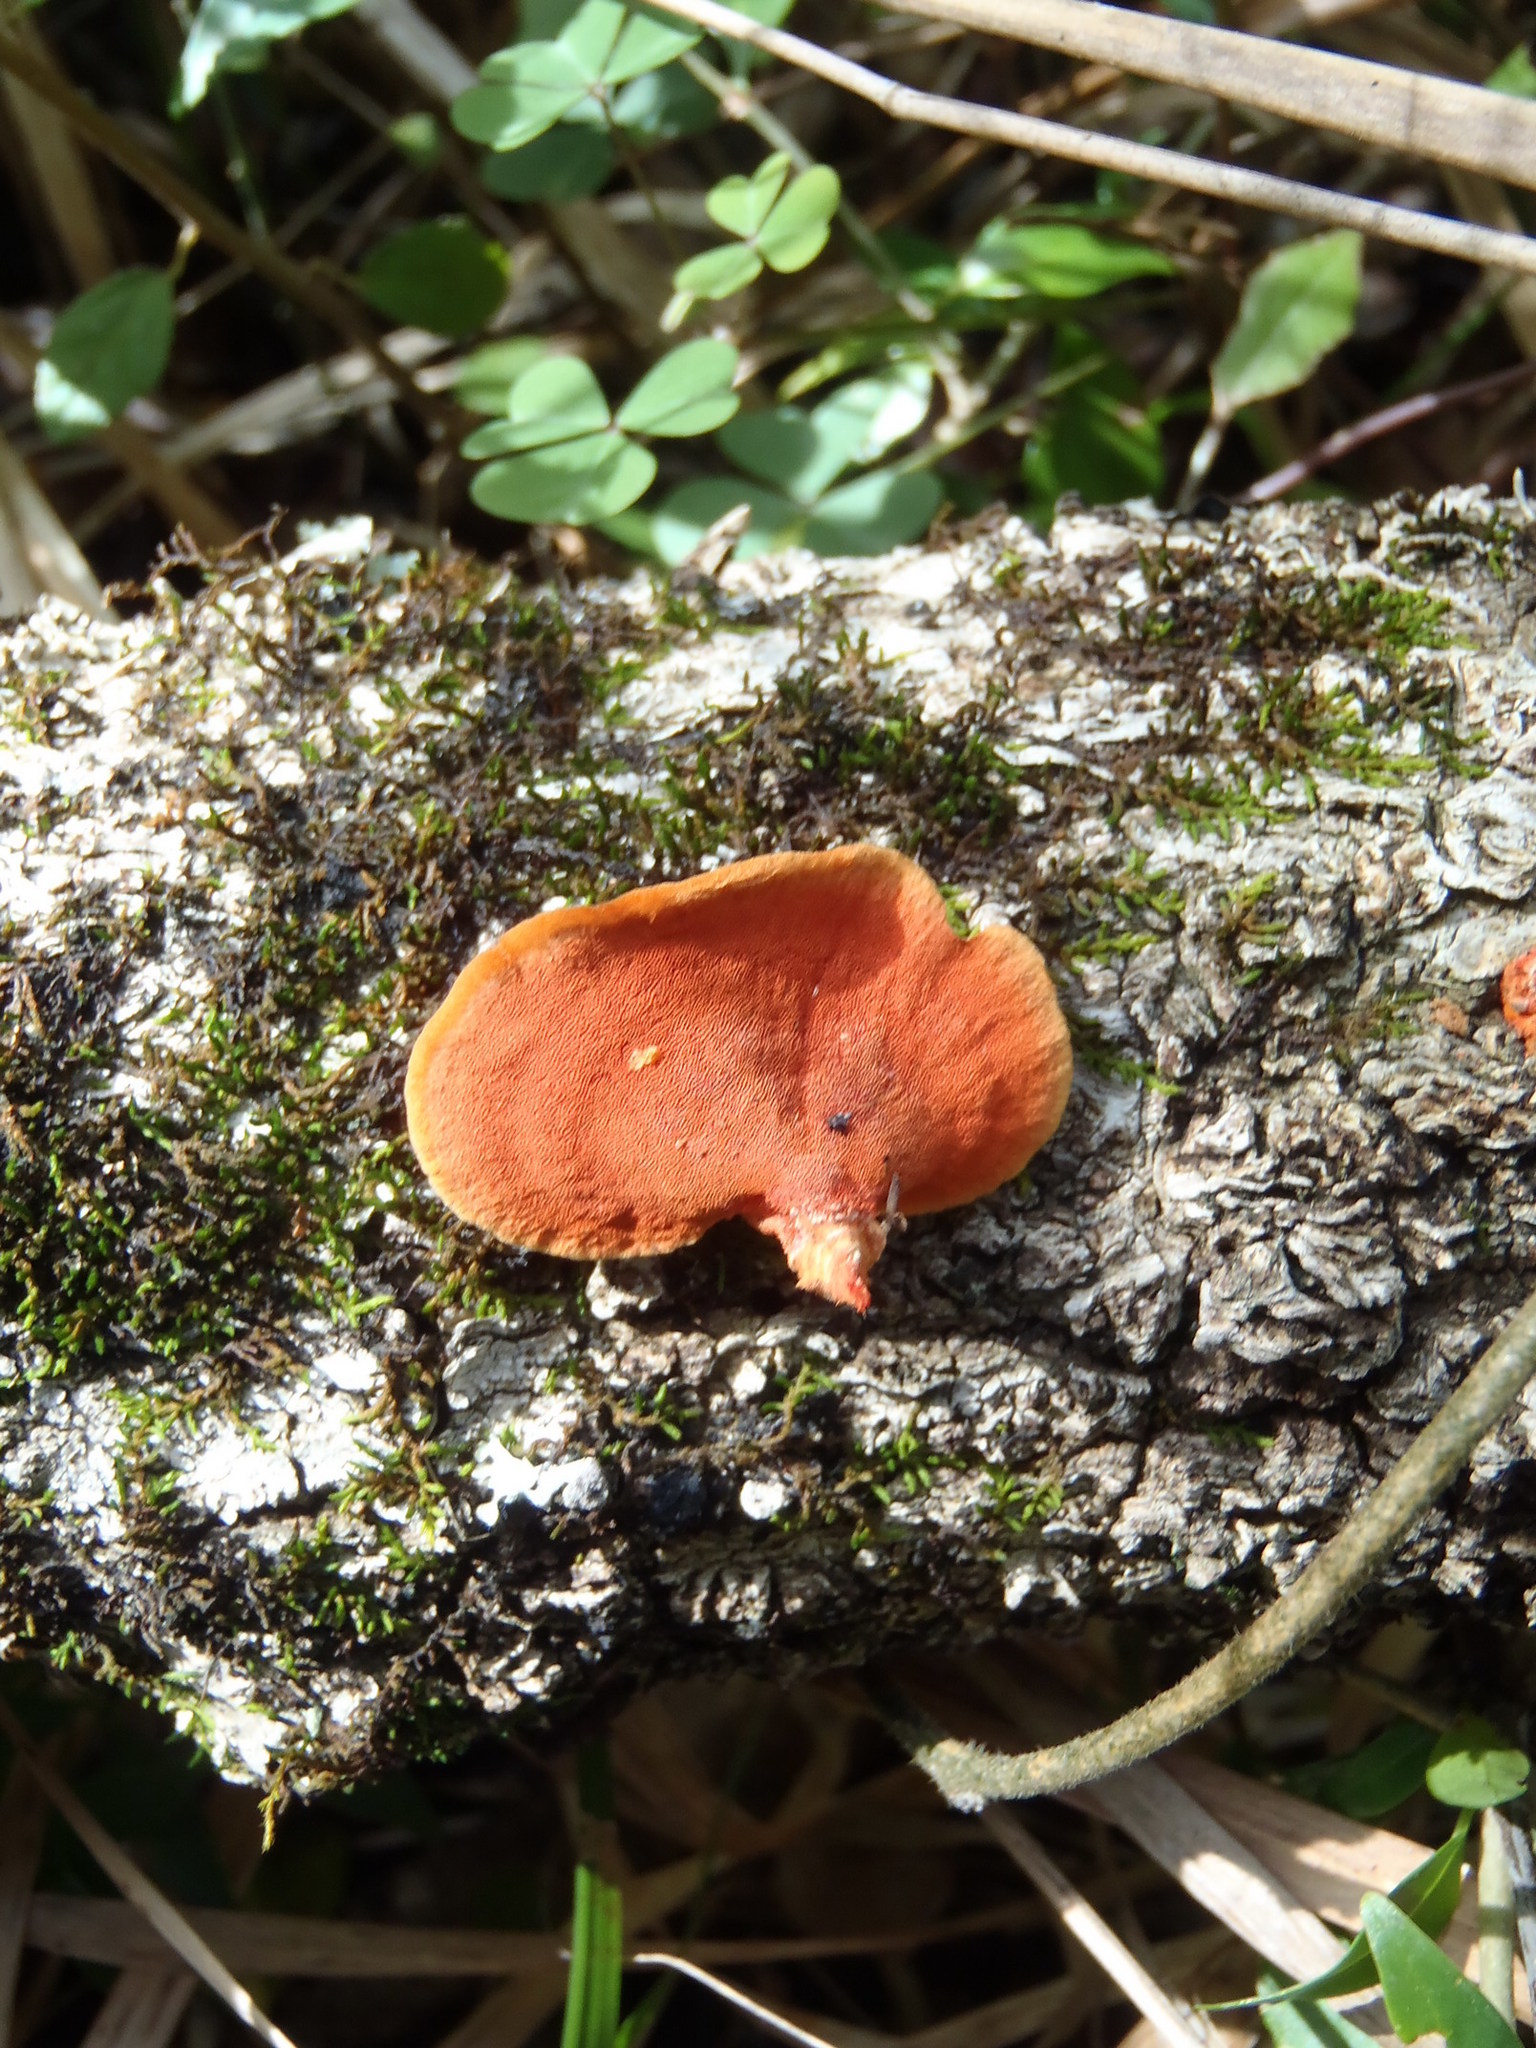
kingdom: Fungi
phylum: Basidiomycota
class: Agaricomycetes
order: Polyporales
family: Polyporaceae
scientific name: Polyporaceae
